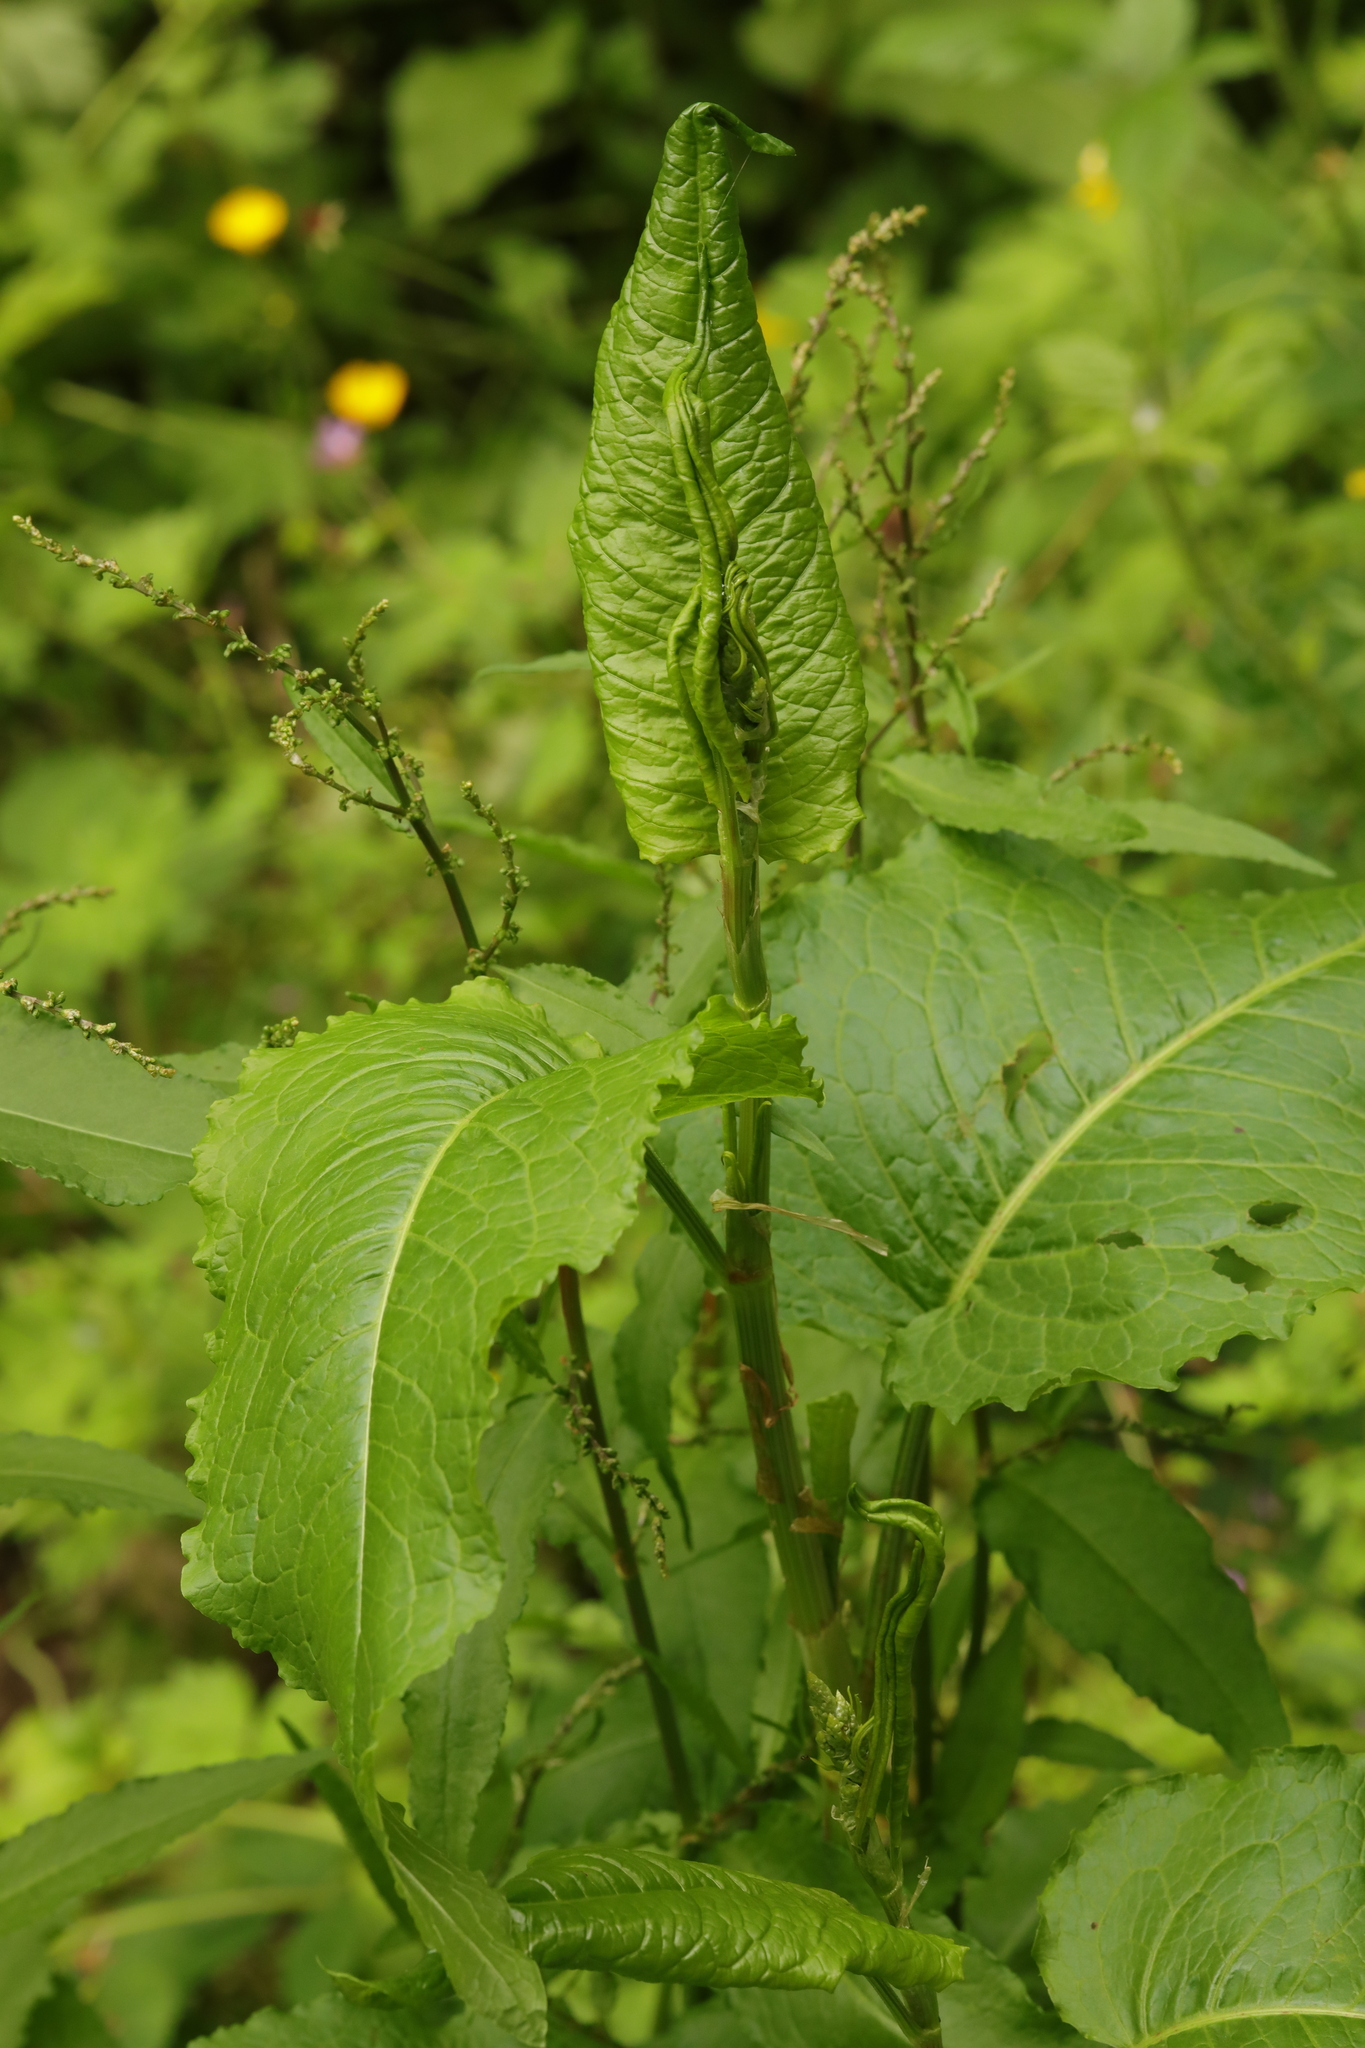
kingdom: Plantae
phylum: Tracheophyta
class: Magnoliopsida
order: Caryophyllales
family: Polygonaceae
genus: Rumex
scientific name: Rumex obtusifolius
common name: Bitter dock
